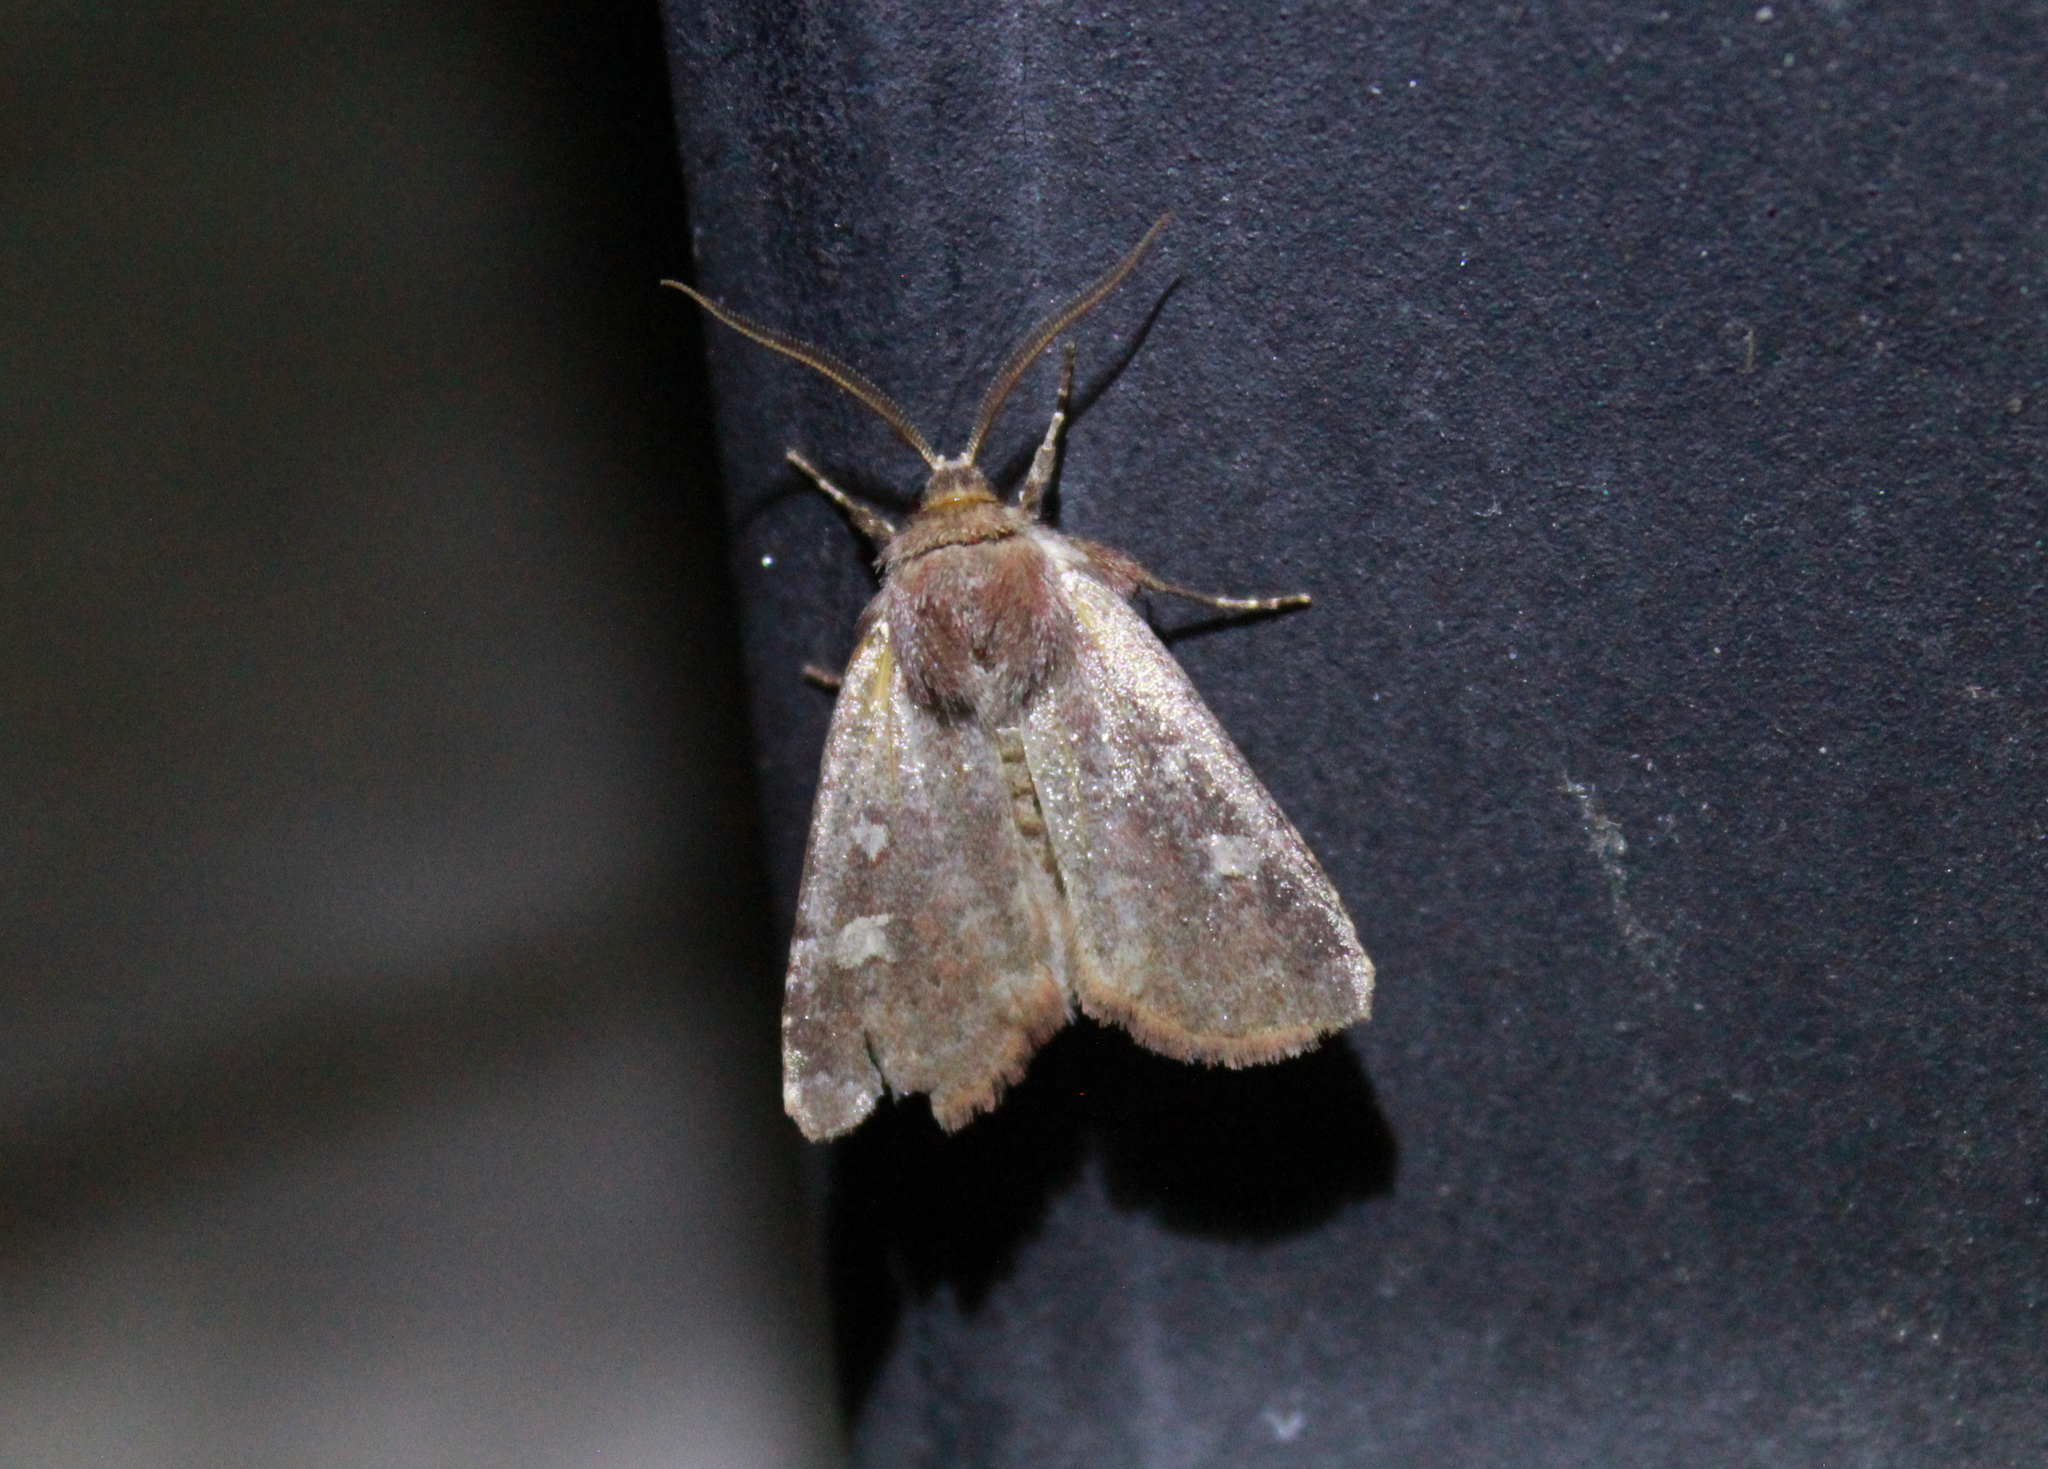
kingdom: Animalia
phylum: Arthropoda
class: Insecta
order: Lepidoptera
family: Noctuidae
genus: Cerastis
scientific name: Cerastis tenebrifera
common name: Reddish speckled dart
